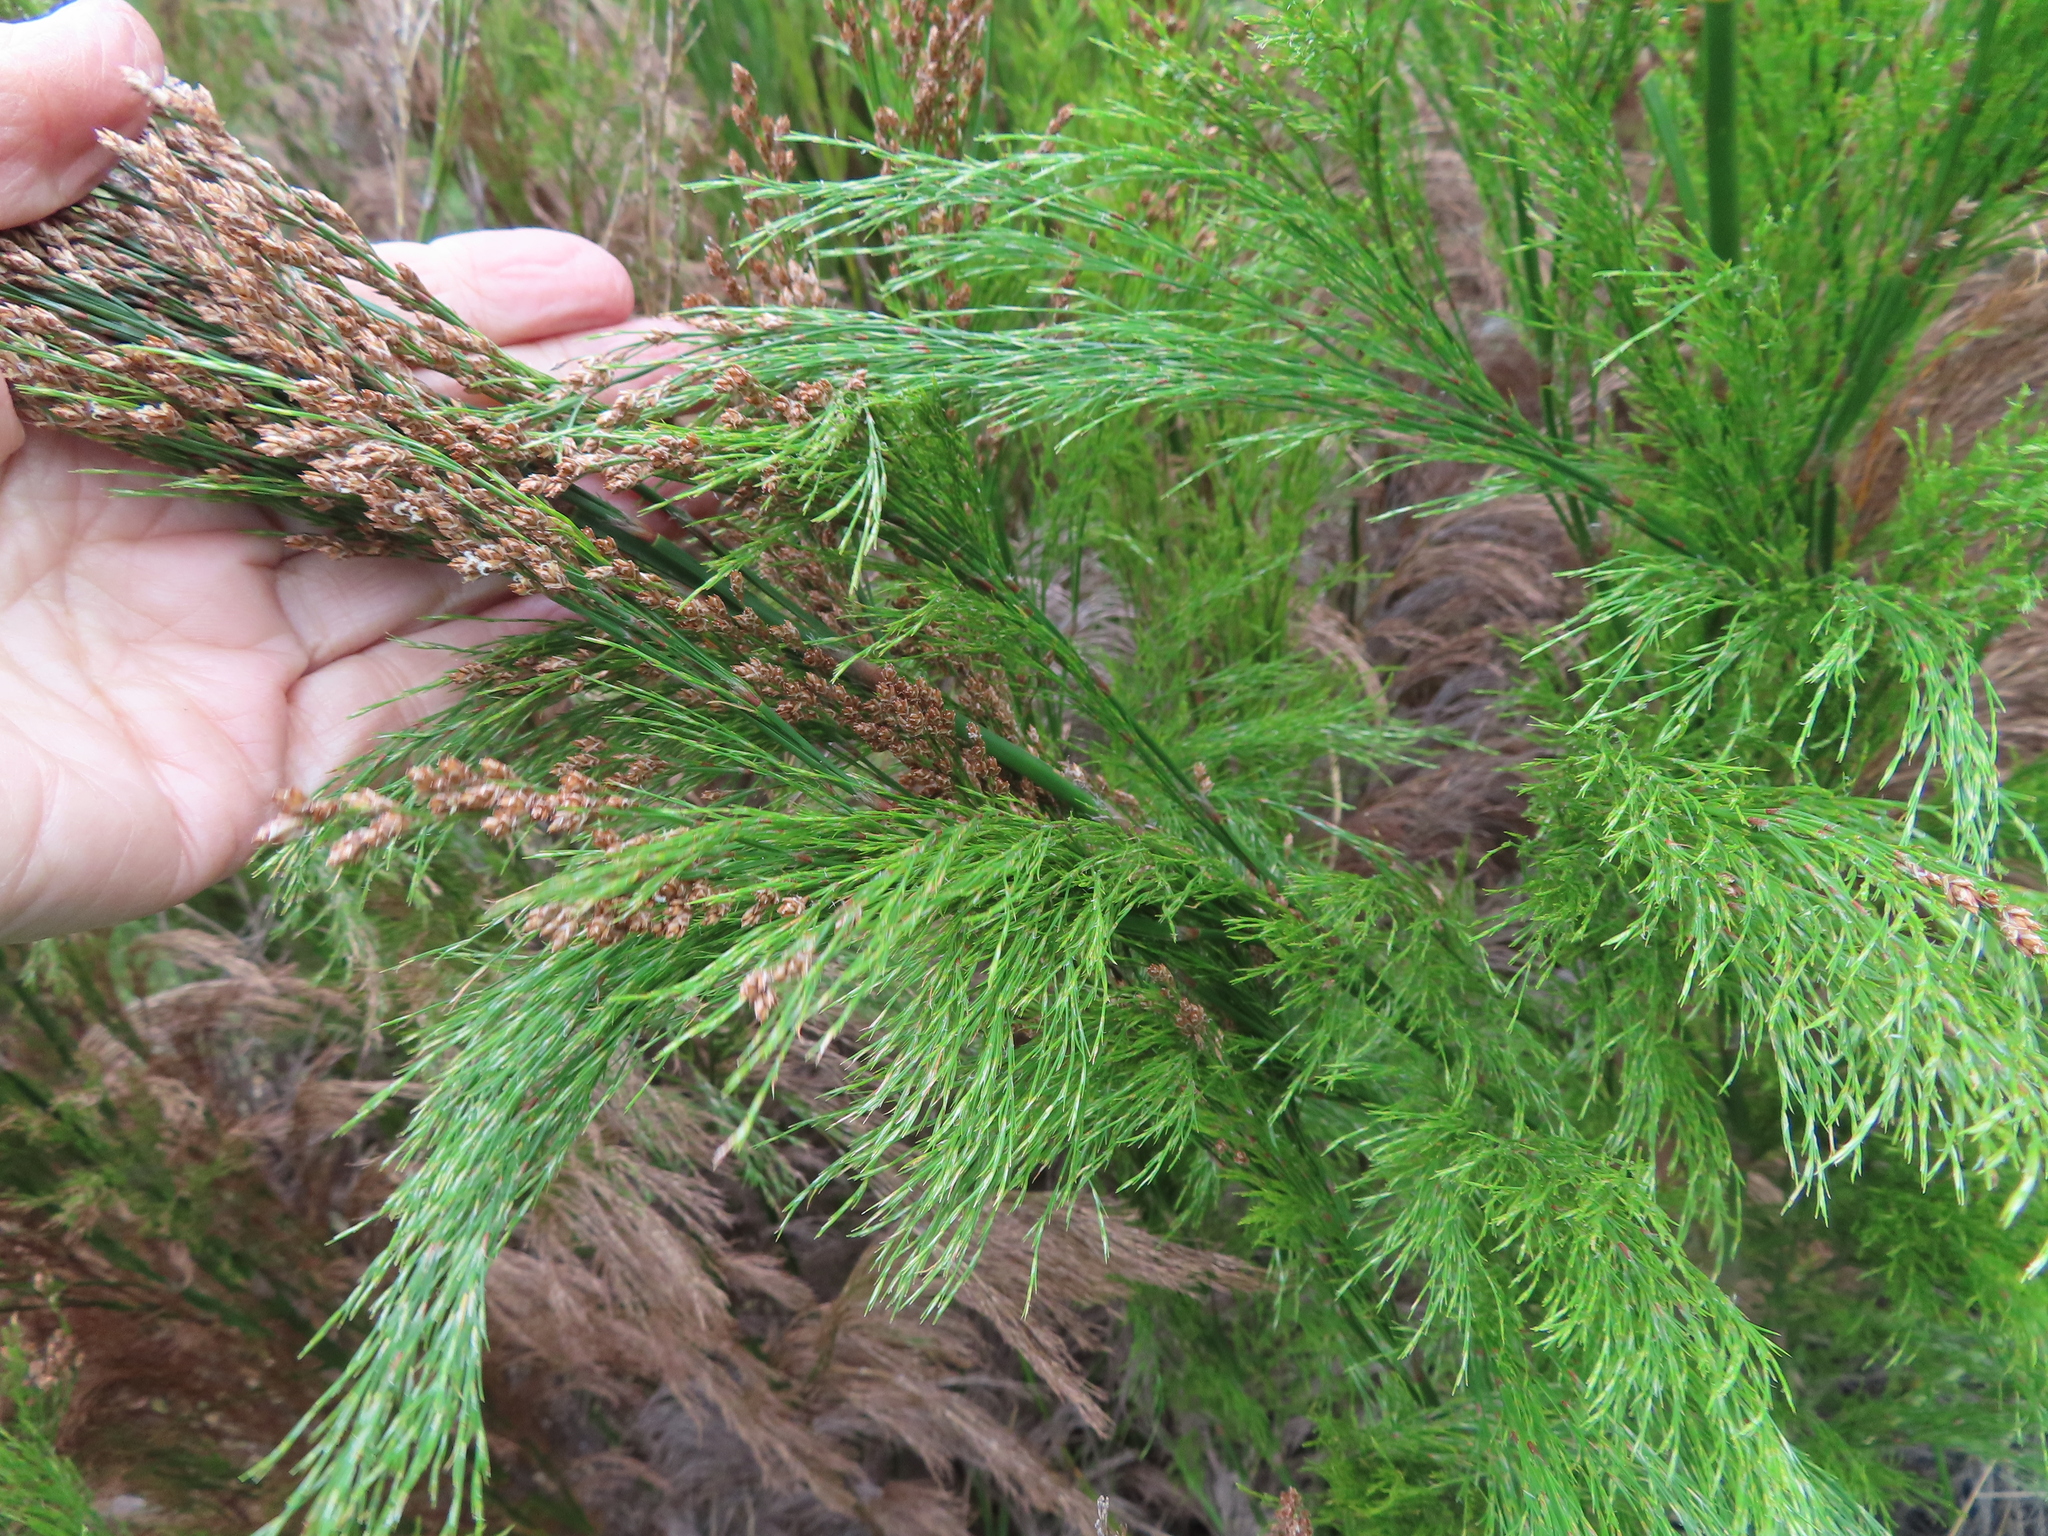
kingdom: Plantae
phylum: Tracheophyta
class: Liliopsida
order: Poales
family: Restionaceae
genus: Restio
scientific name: Restio paniculatus
